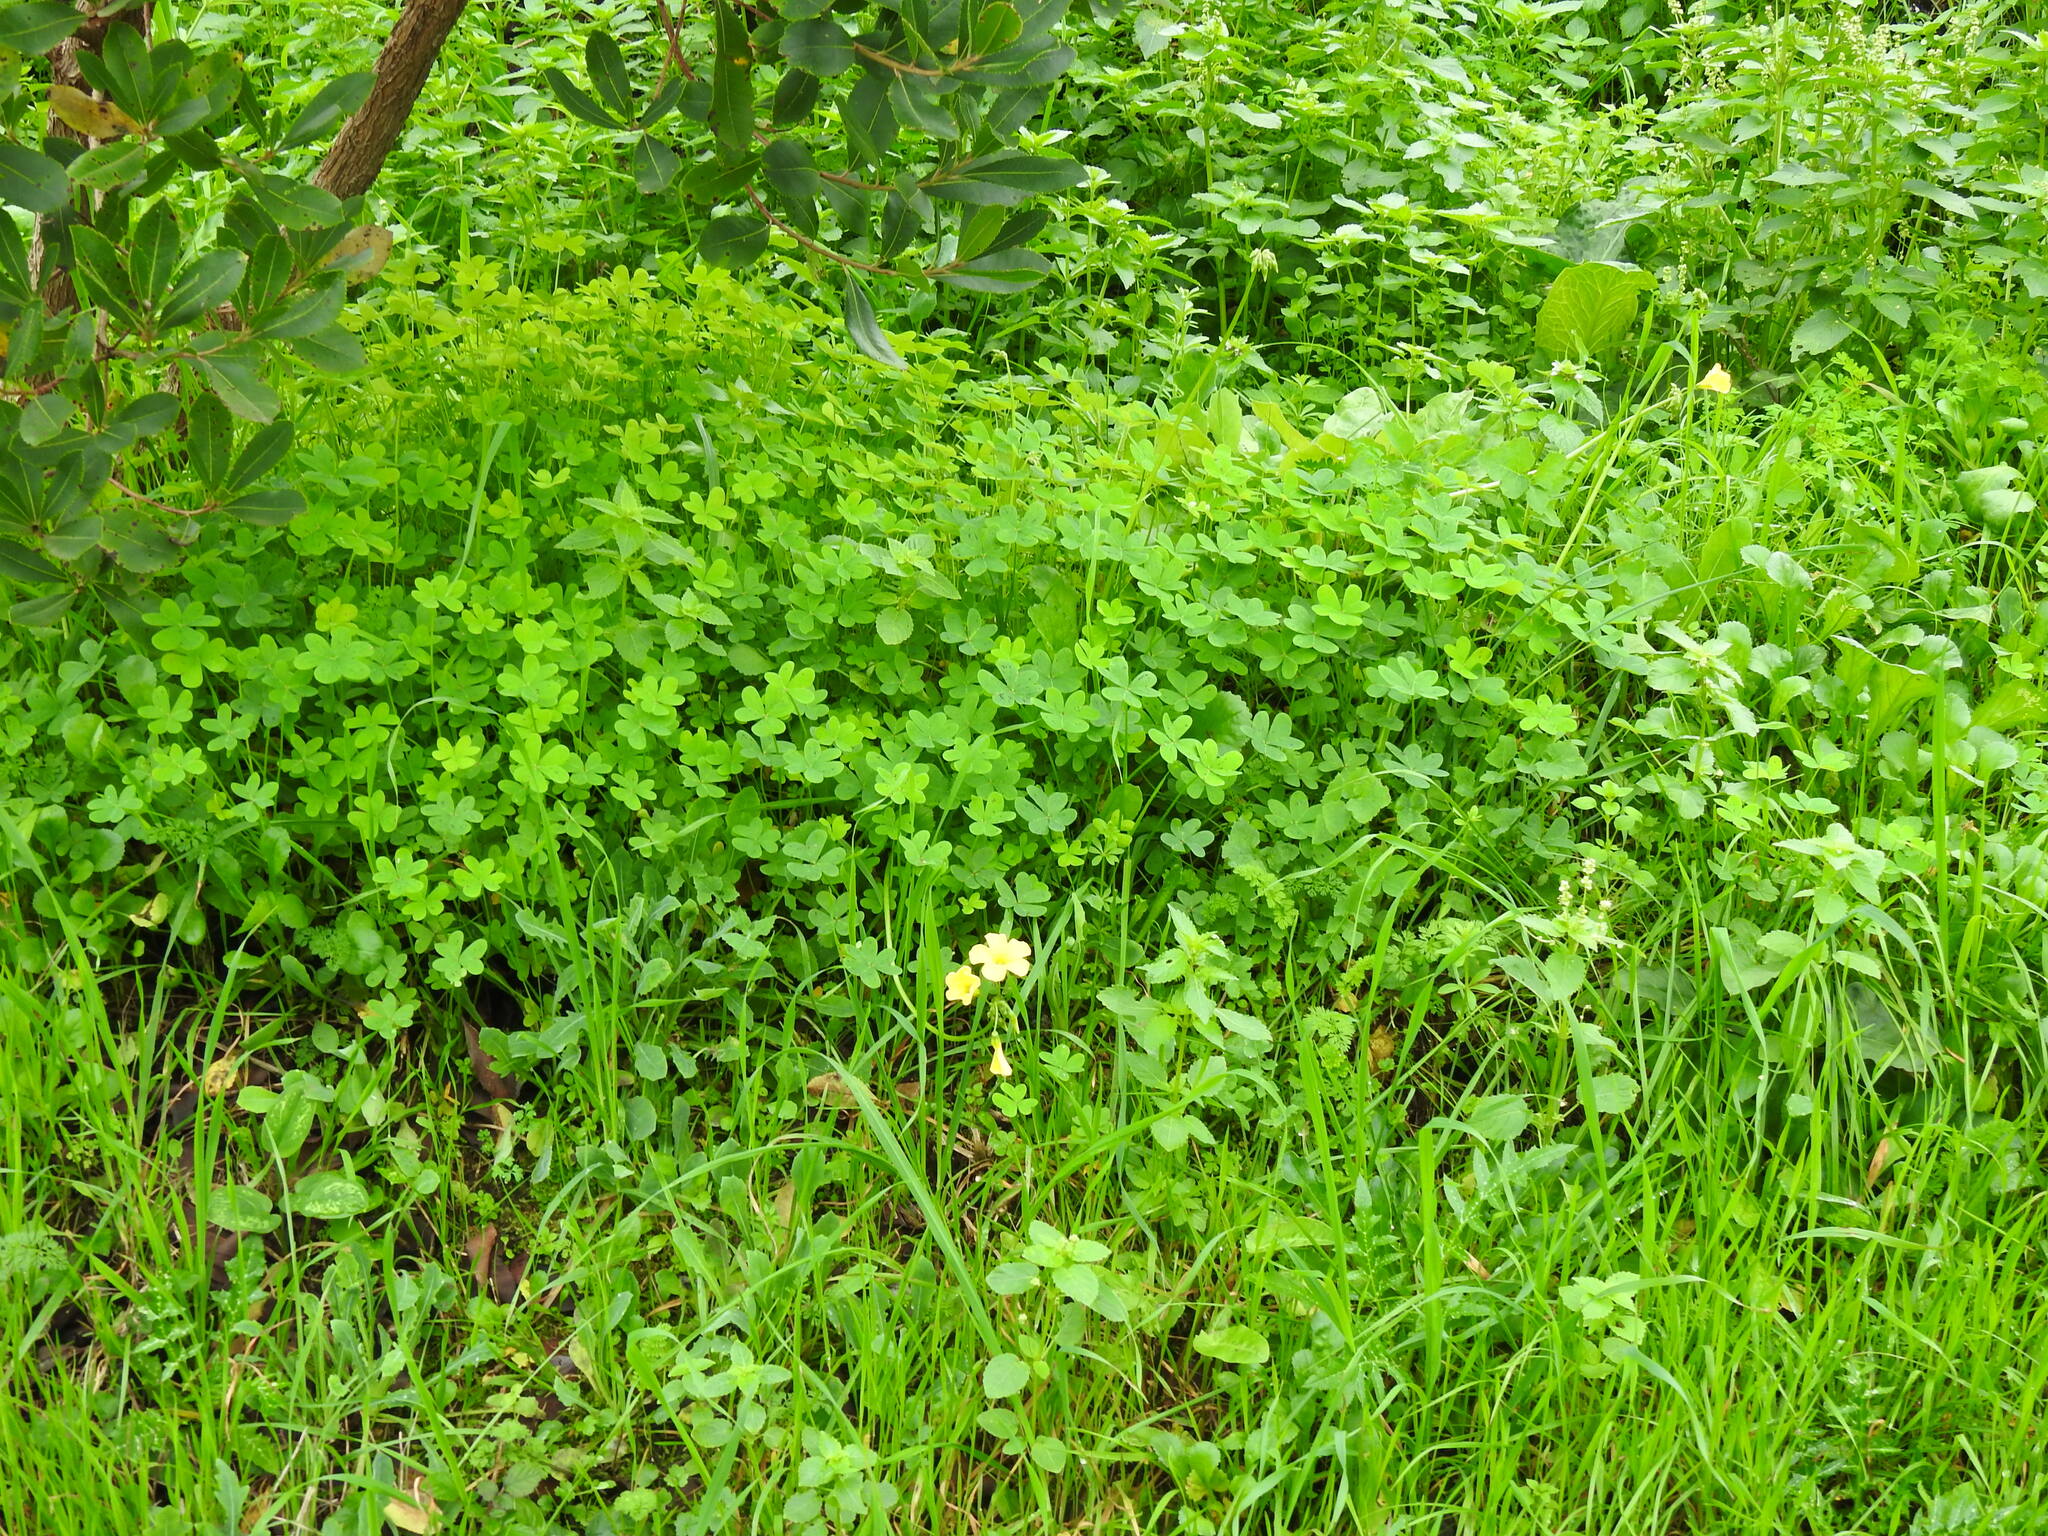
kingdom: Plantae
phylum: Tracheophyta
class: Magnoliopsida
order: Oxalidales
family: Oxalidaceae
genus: Oxalis
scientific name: Oxalis pes-caprae
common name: Bermuda-buttercup
